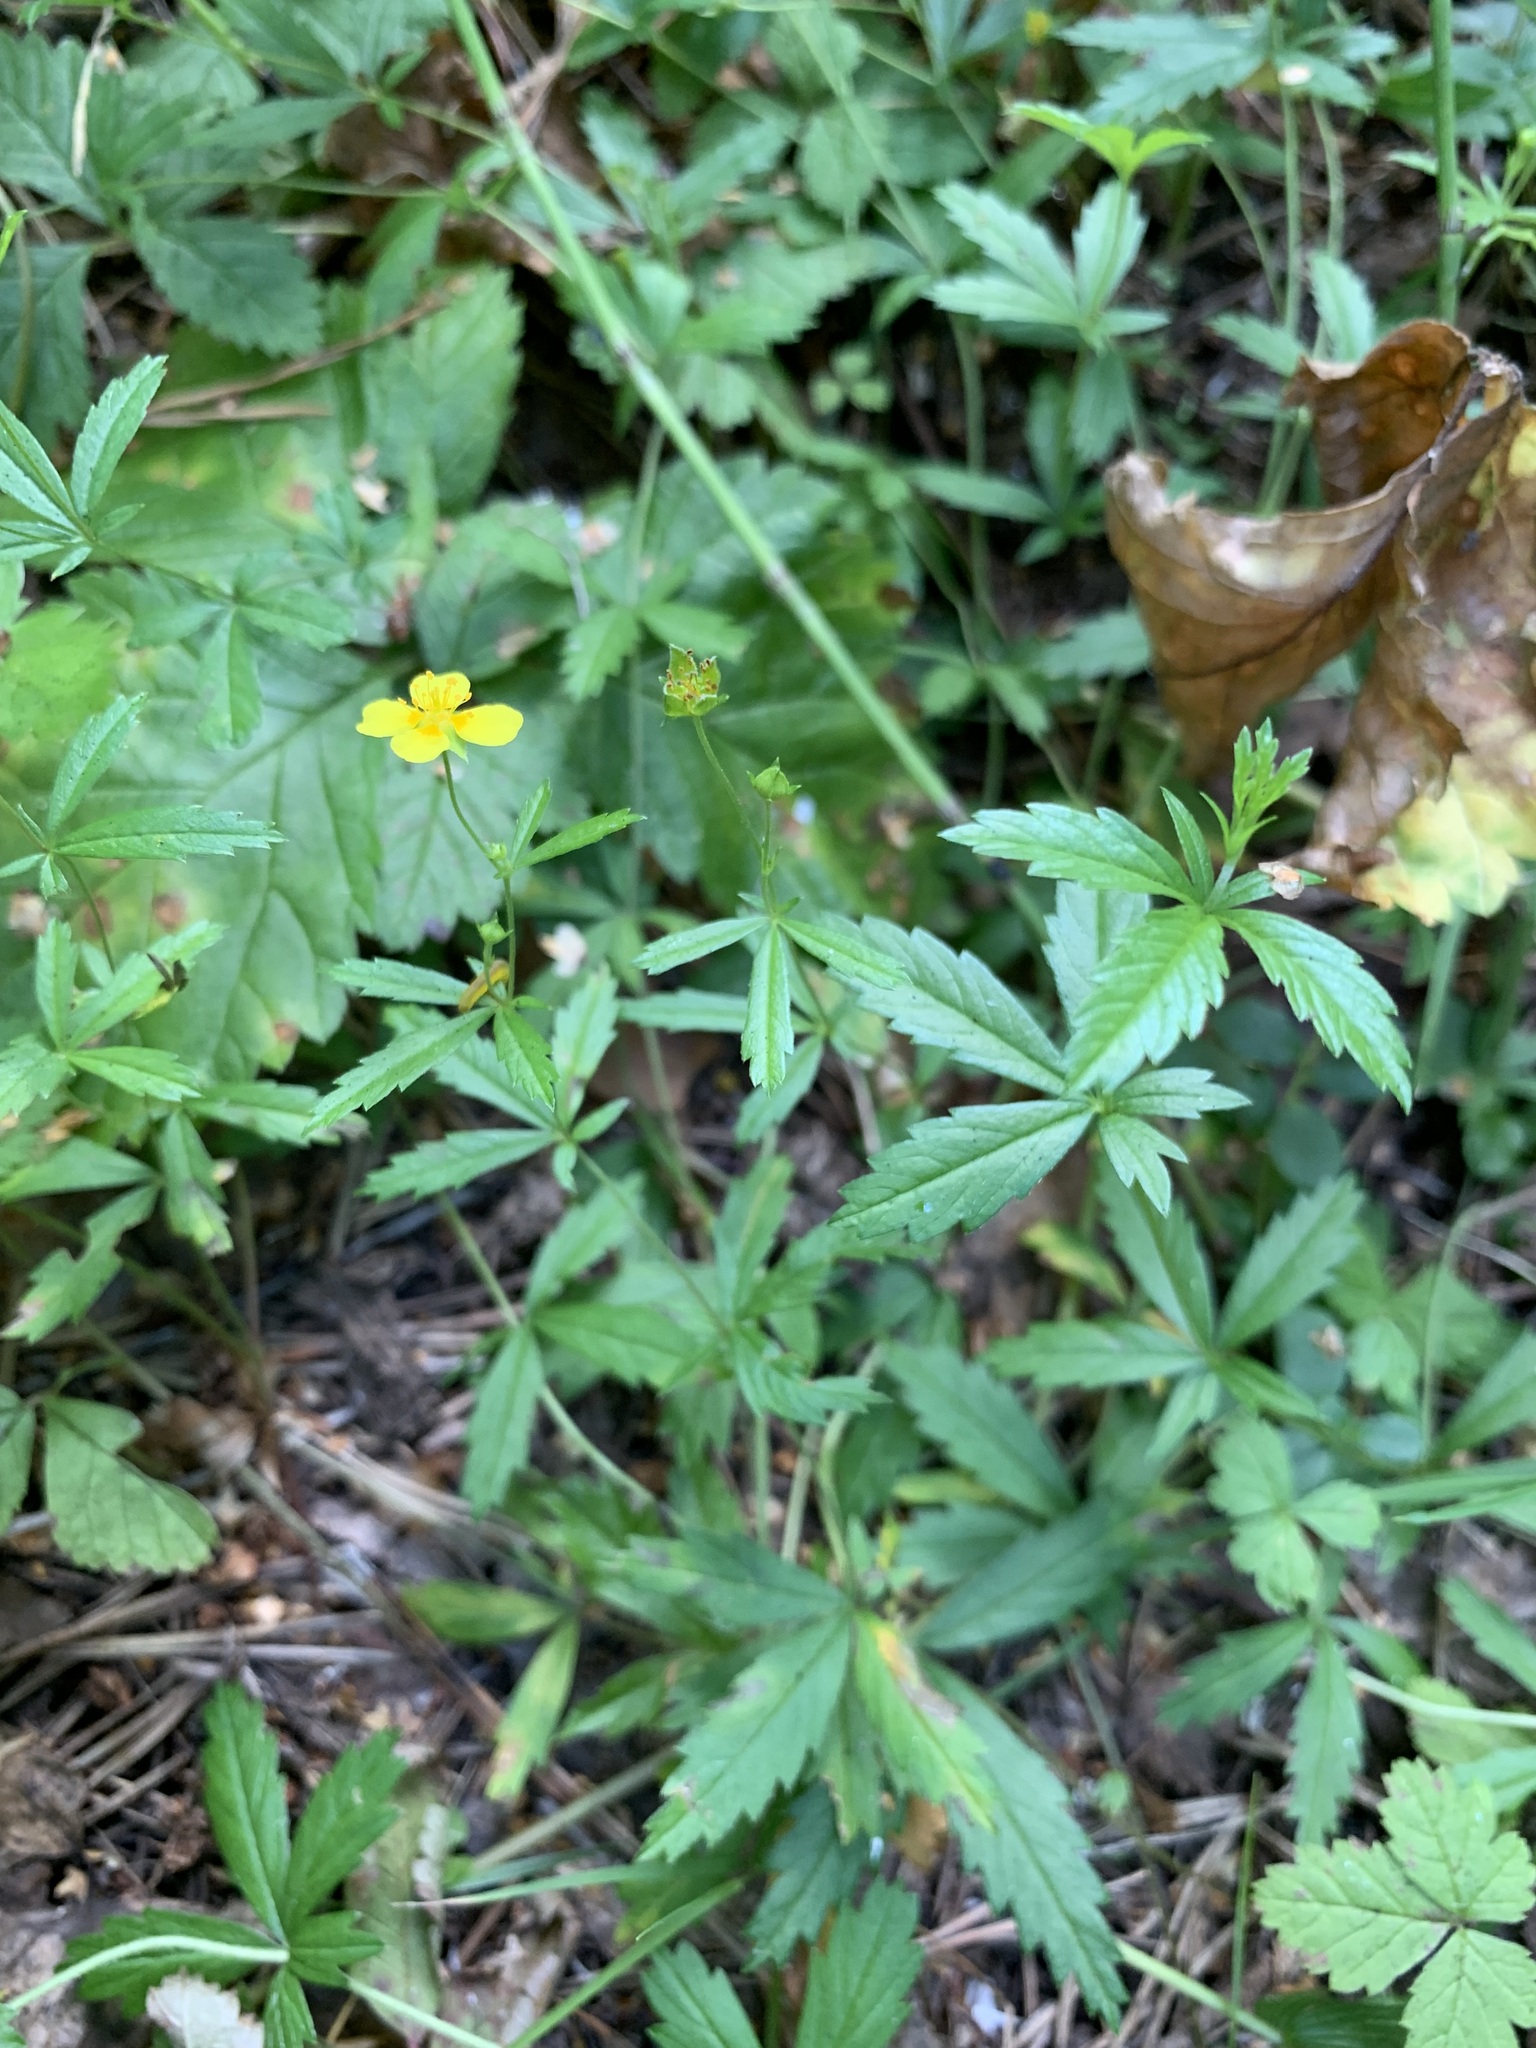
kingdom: Plantae
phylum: Tracheophyta
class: Magnoliopsida
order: Rosales
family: Rosaceae
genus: Potentilla
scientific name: Potentilla erecta
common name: Tormentil
